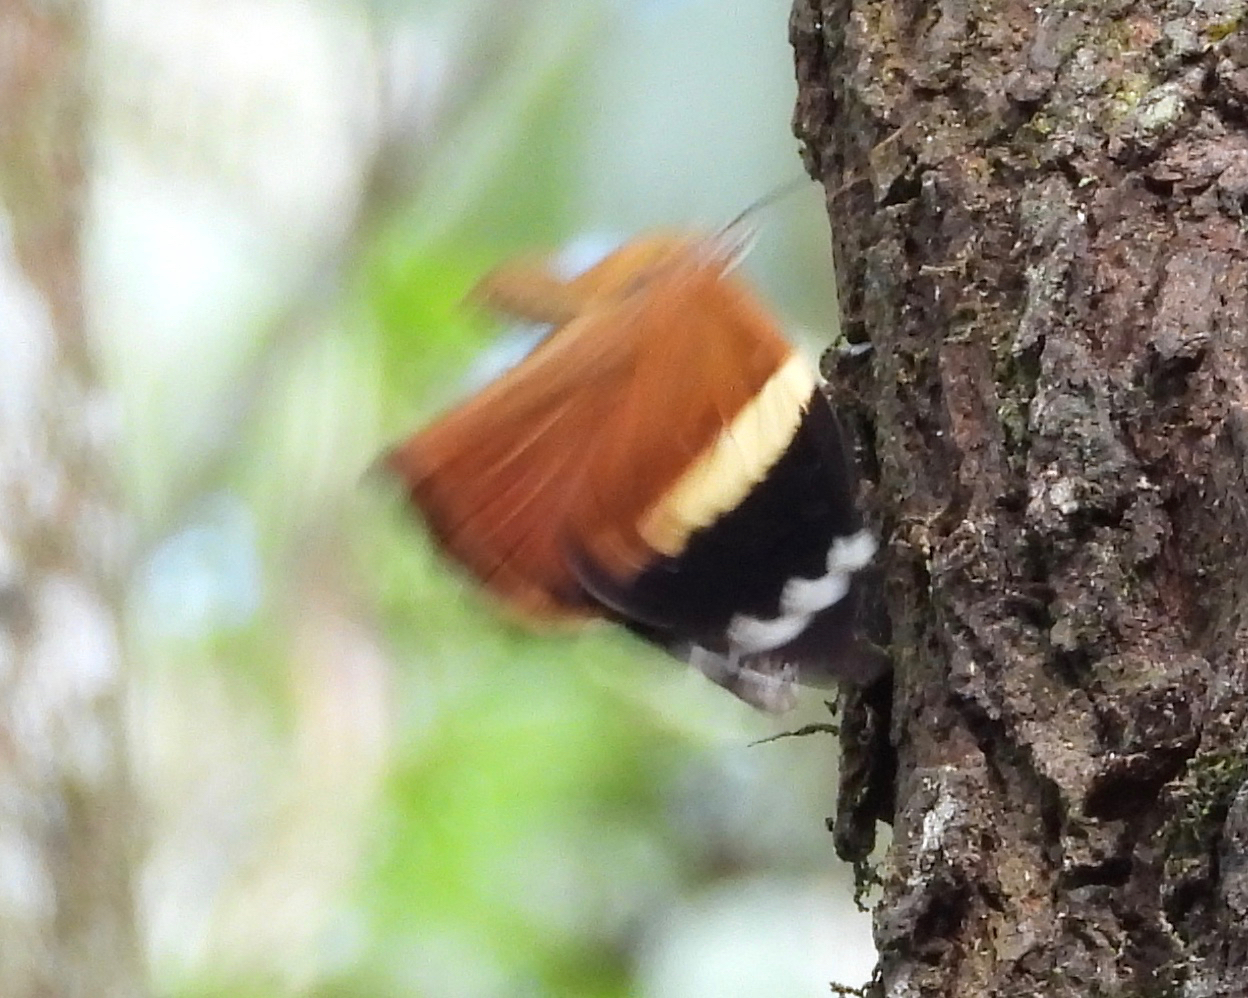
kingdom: Animalia
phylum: Arthropoda
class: Insecta
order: Lepidoptera
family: Nymphalidae
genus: Smyrna
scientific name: Smyrna blomfildia
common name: Blomfild's beauty
